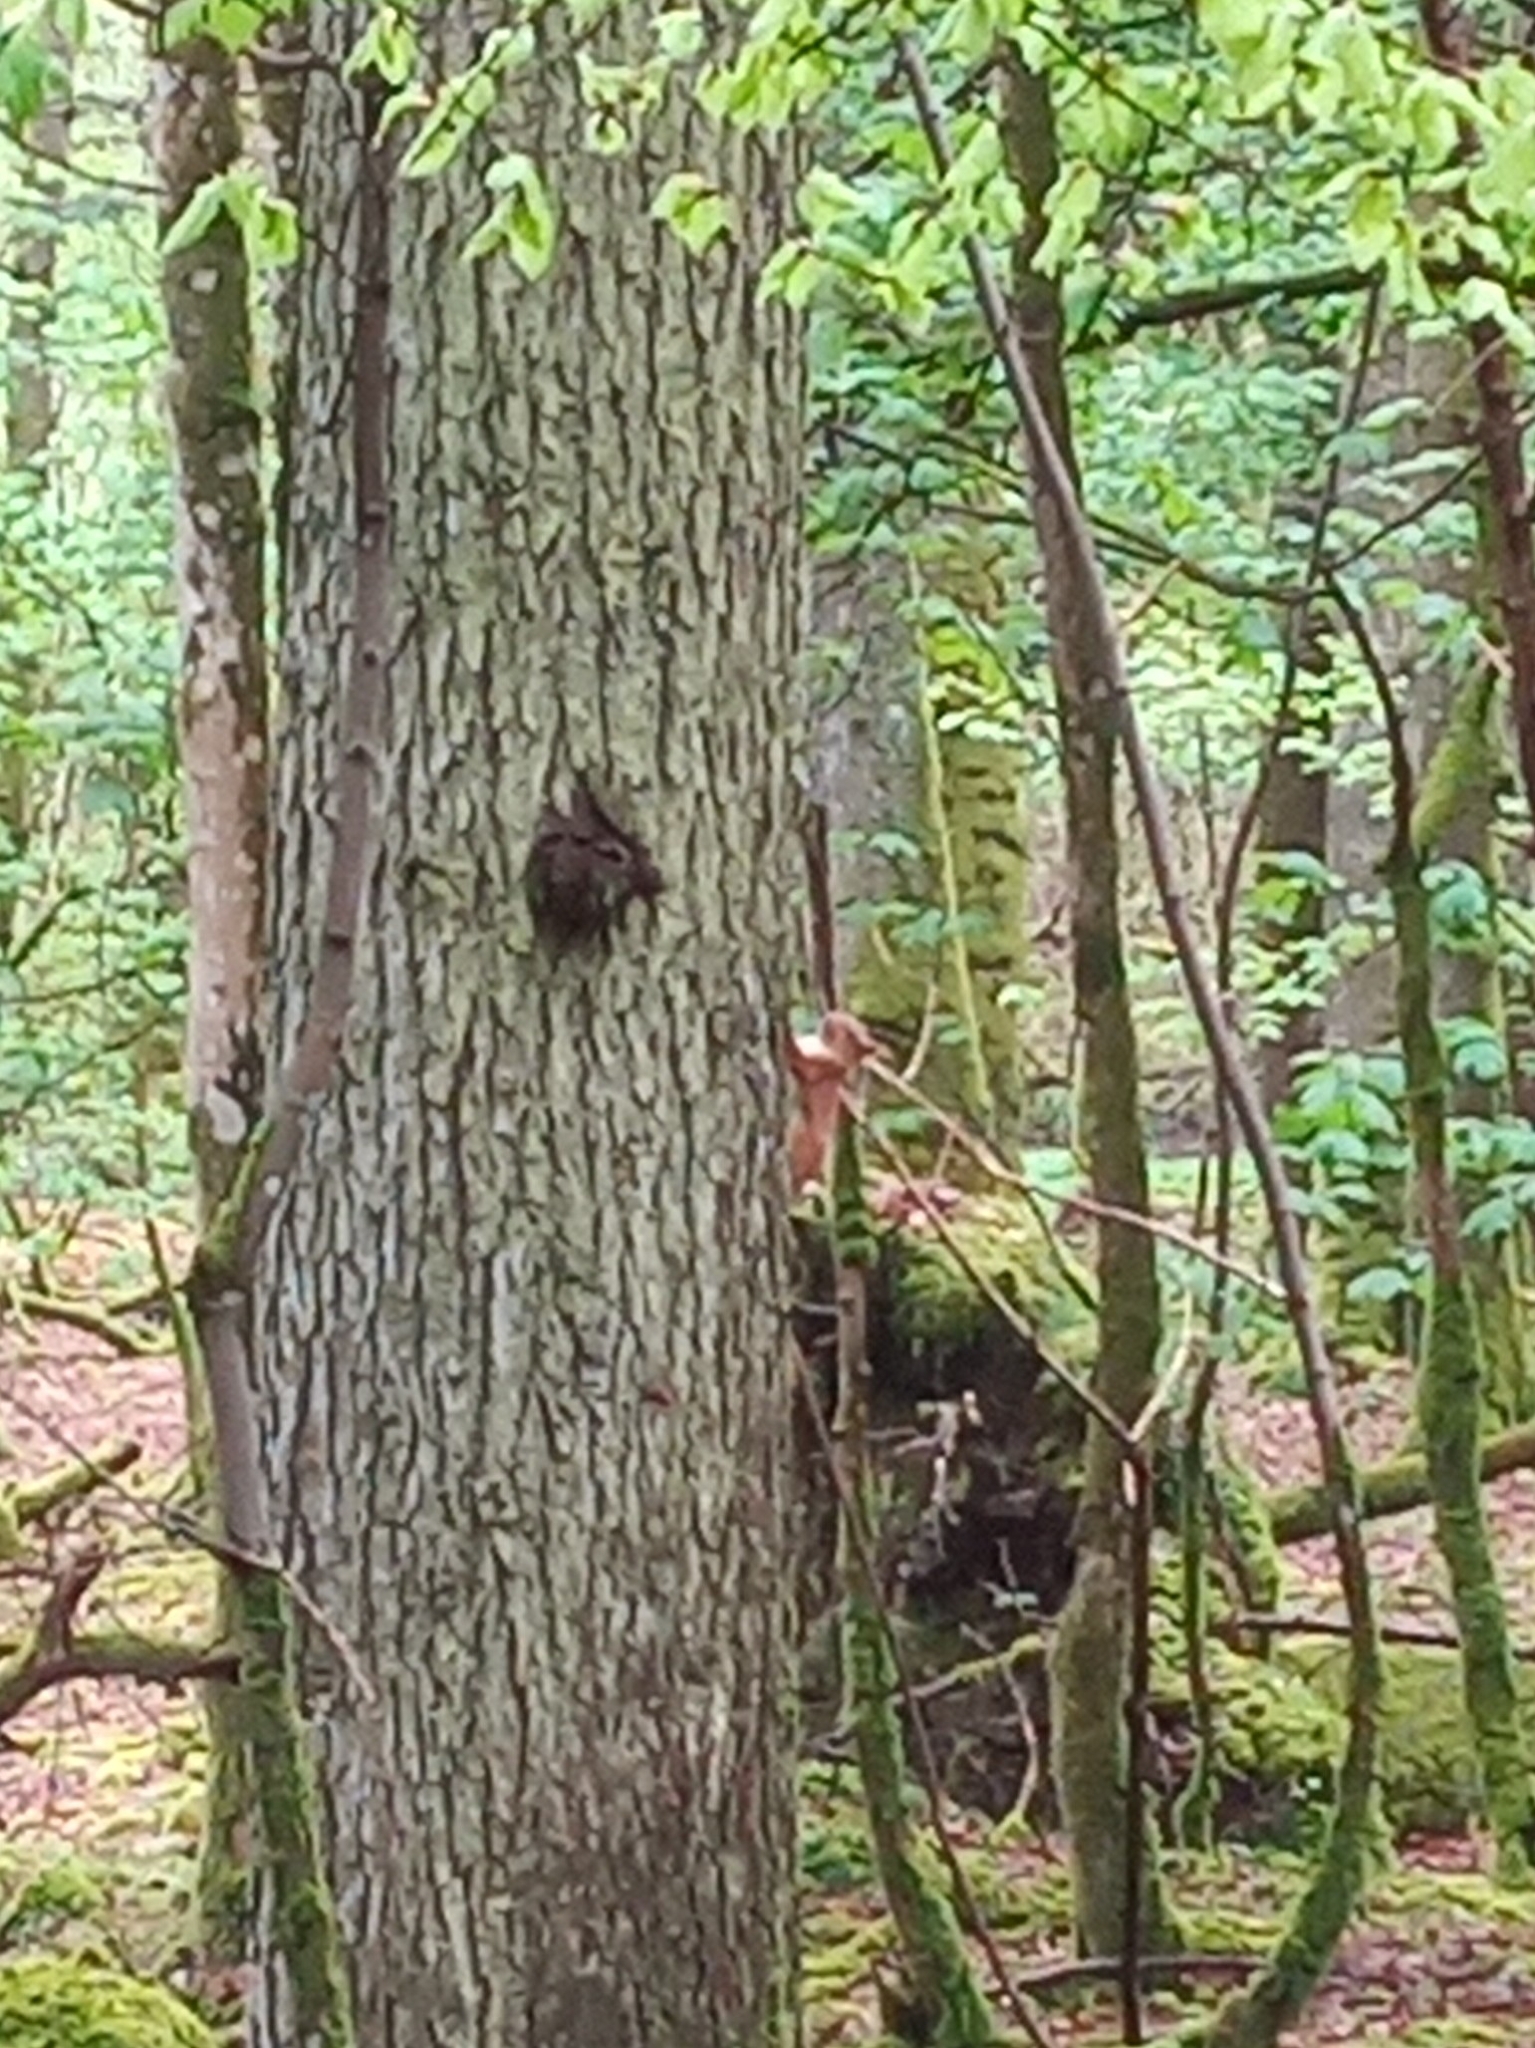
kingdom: Animalia
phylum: Chordata
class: Mammalia
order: Rodentia
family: Sciuridae
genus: Sciurus
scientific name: Sciurus vulgaris
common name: Eurasian red squirrel
